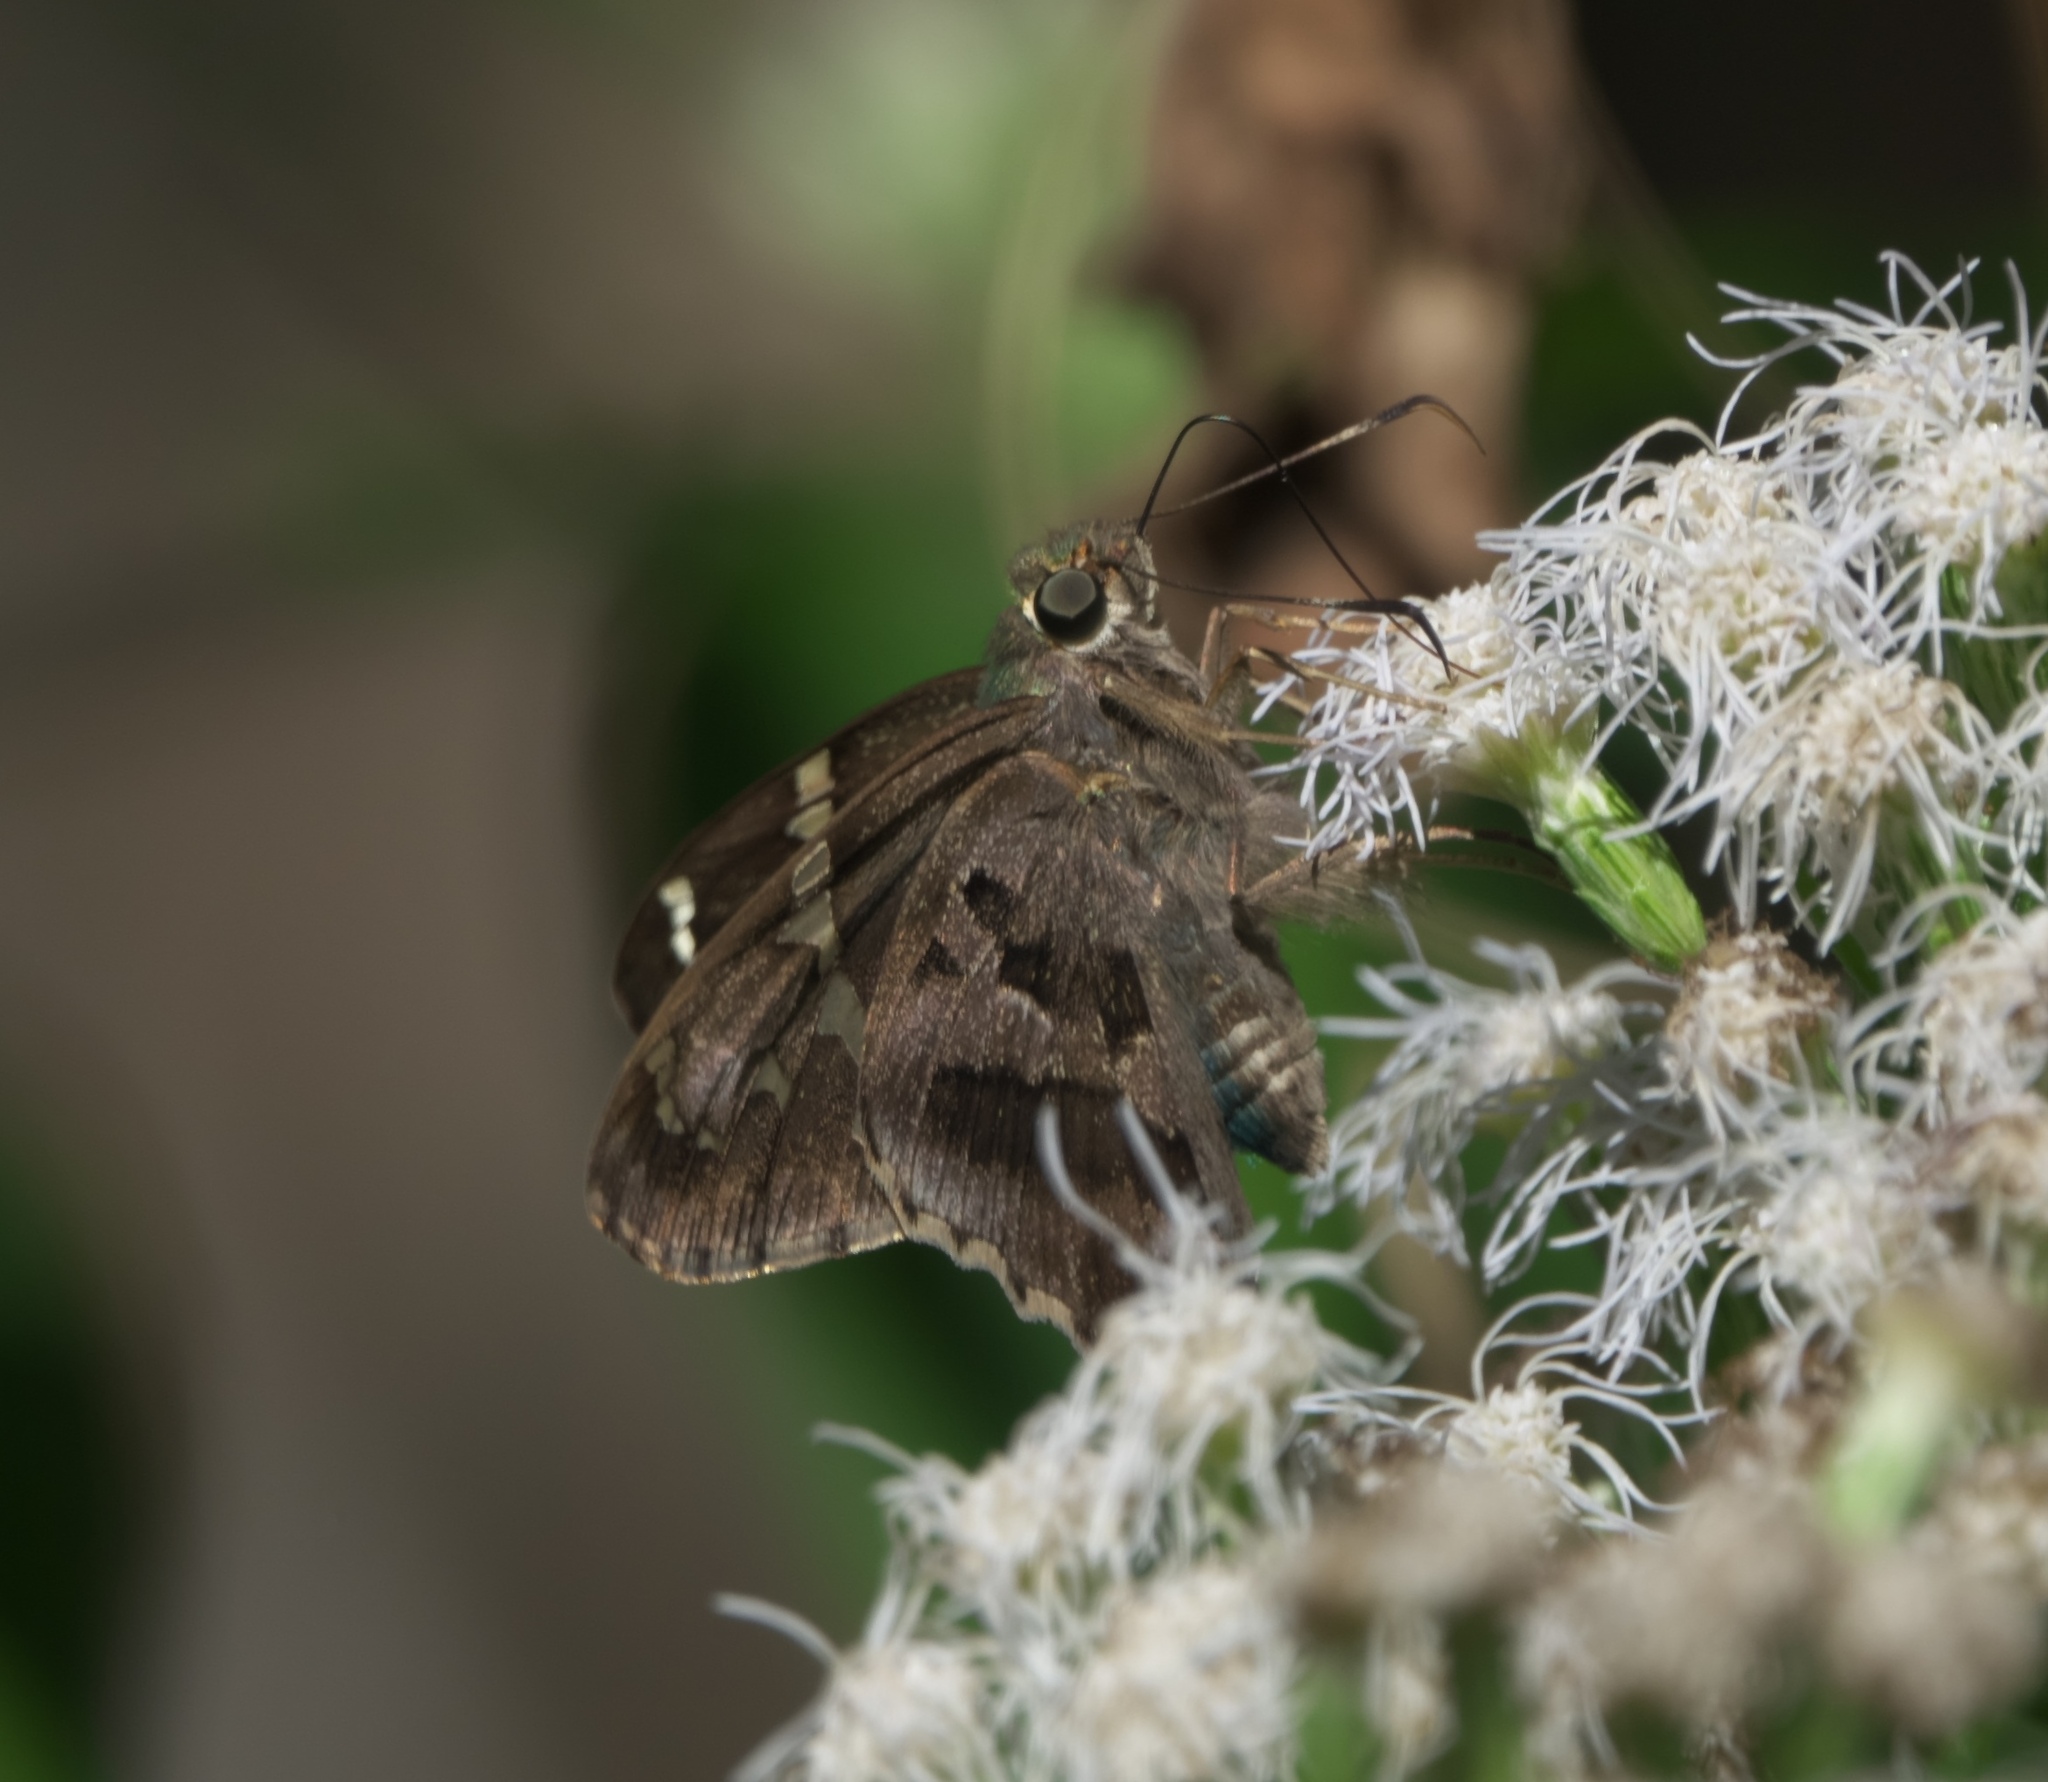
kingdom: Animalia
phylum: Arthropoda
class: Insecta
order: Lepidoptera
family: Hesperiidae
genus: Urbanus
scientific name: Urbanus proteus
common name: Long-tailed skipper
